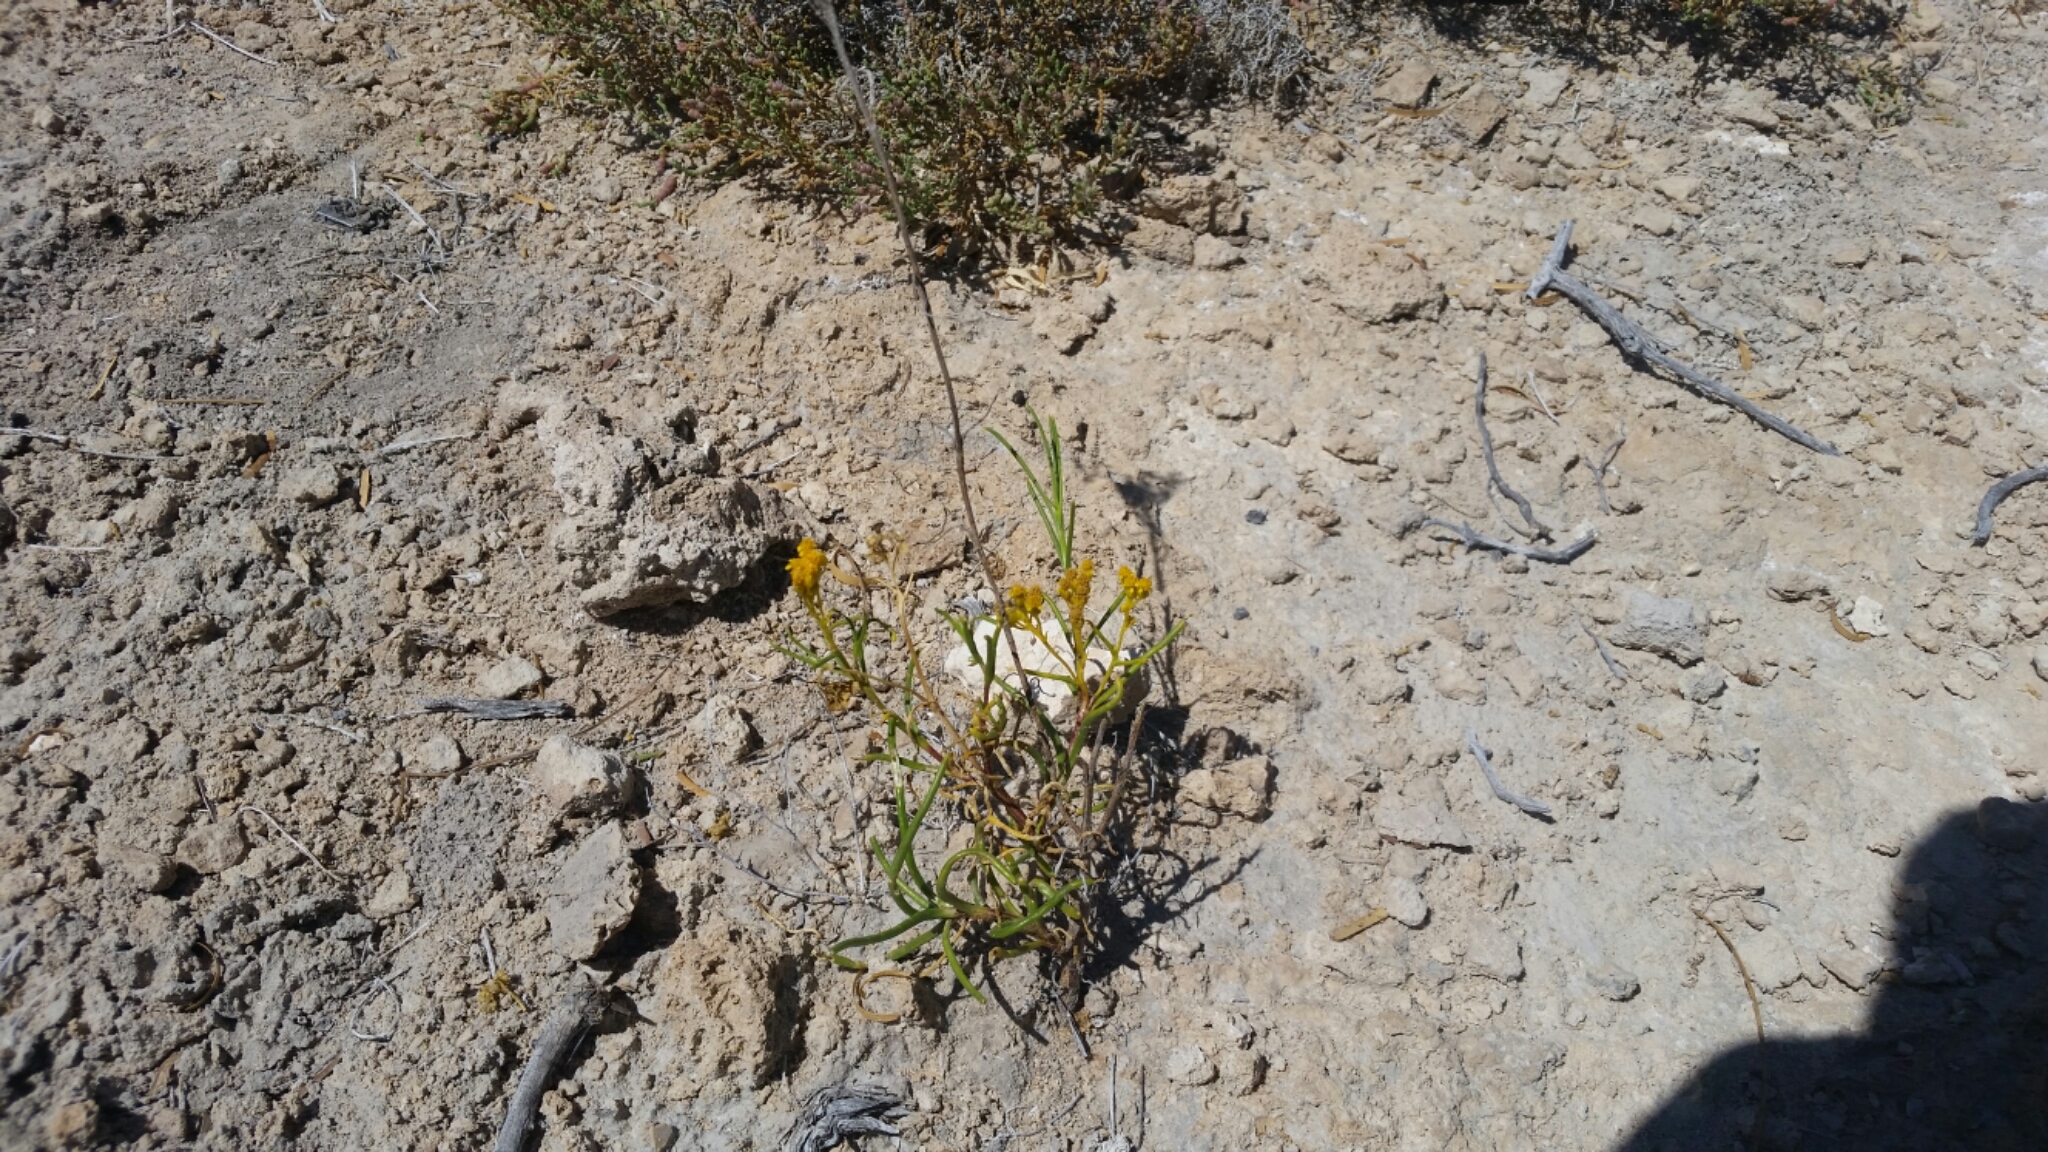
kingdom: Plantae
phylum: Tracheophyta
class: Magnoliopsida
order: Asterales
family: Asteraceae
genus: Haploesthes
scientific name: Haploesthes robusta
